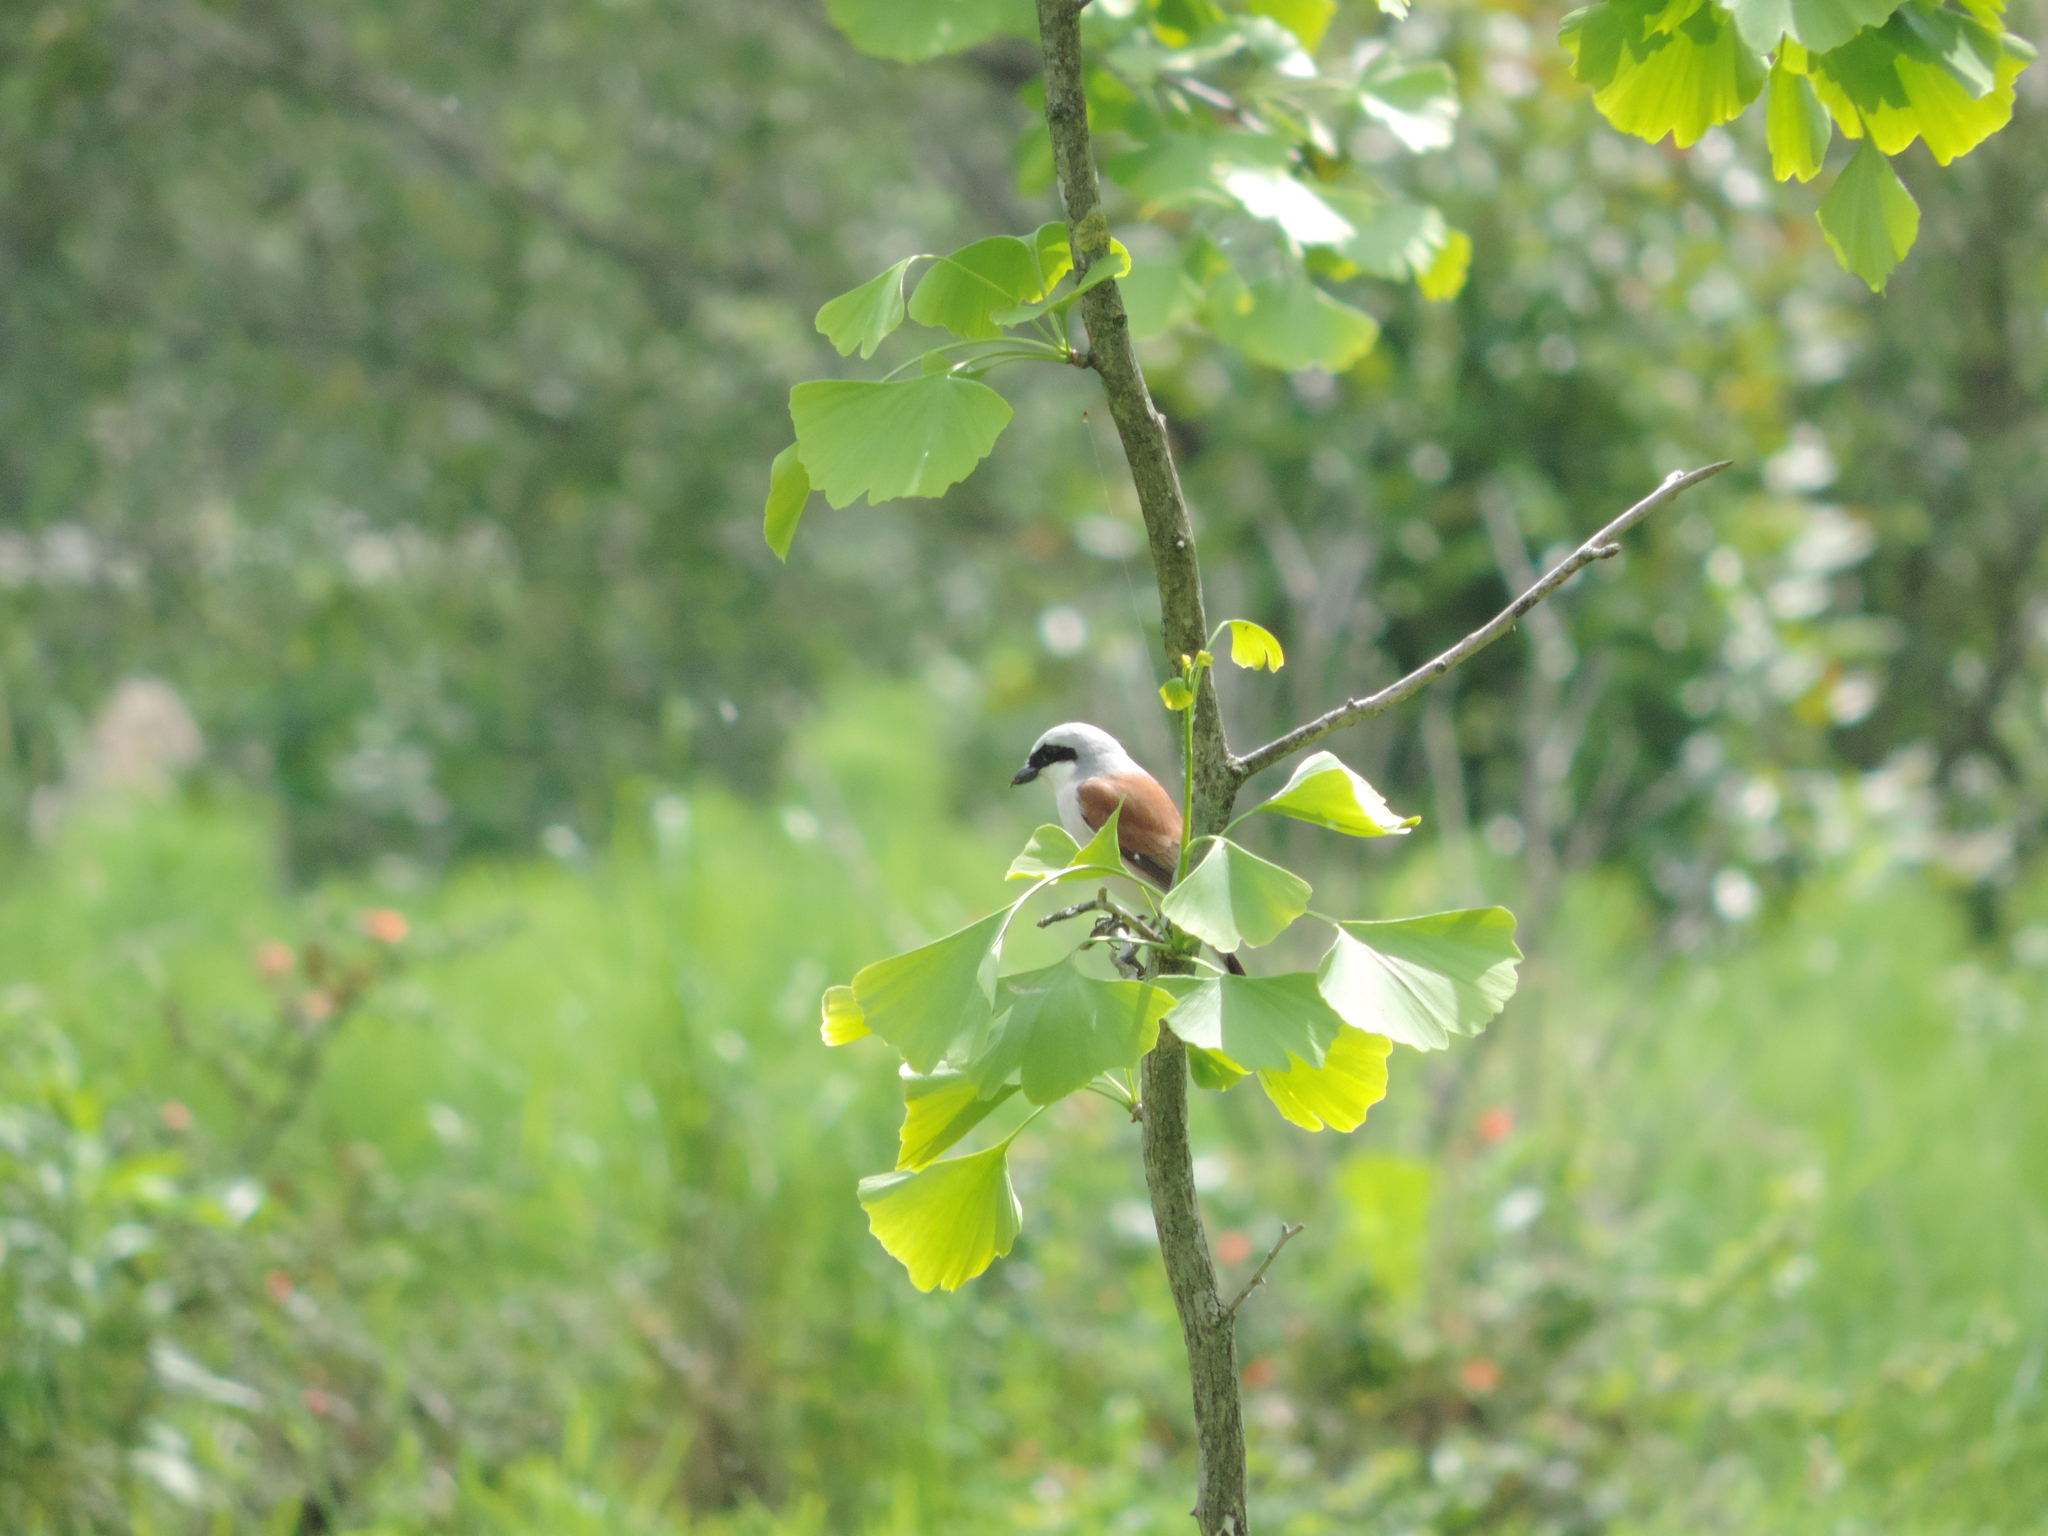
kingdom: Animalia
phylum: Chordata
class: Aves
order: Passeriformes
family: Laniidae
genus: Lanius
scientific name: Lanius collurio
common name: Red-backed shrike
